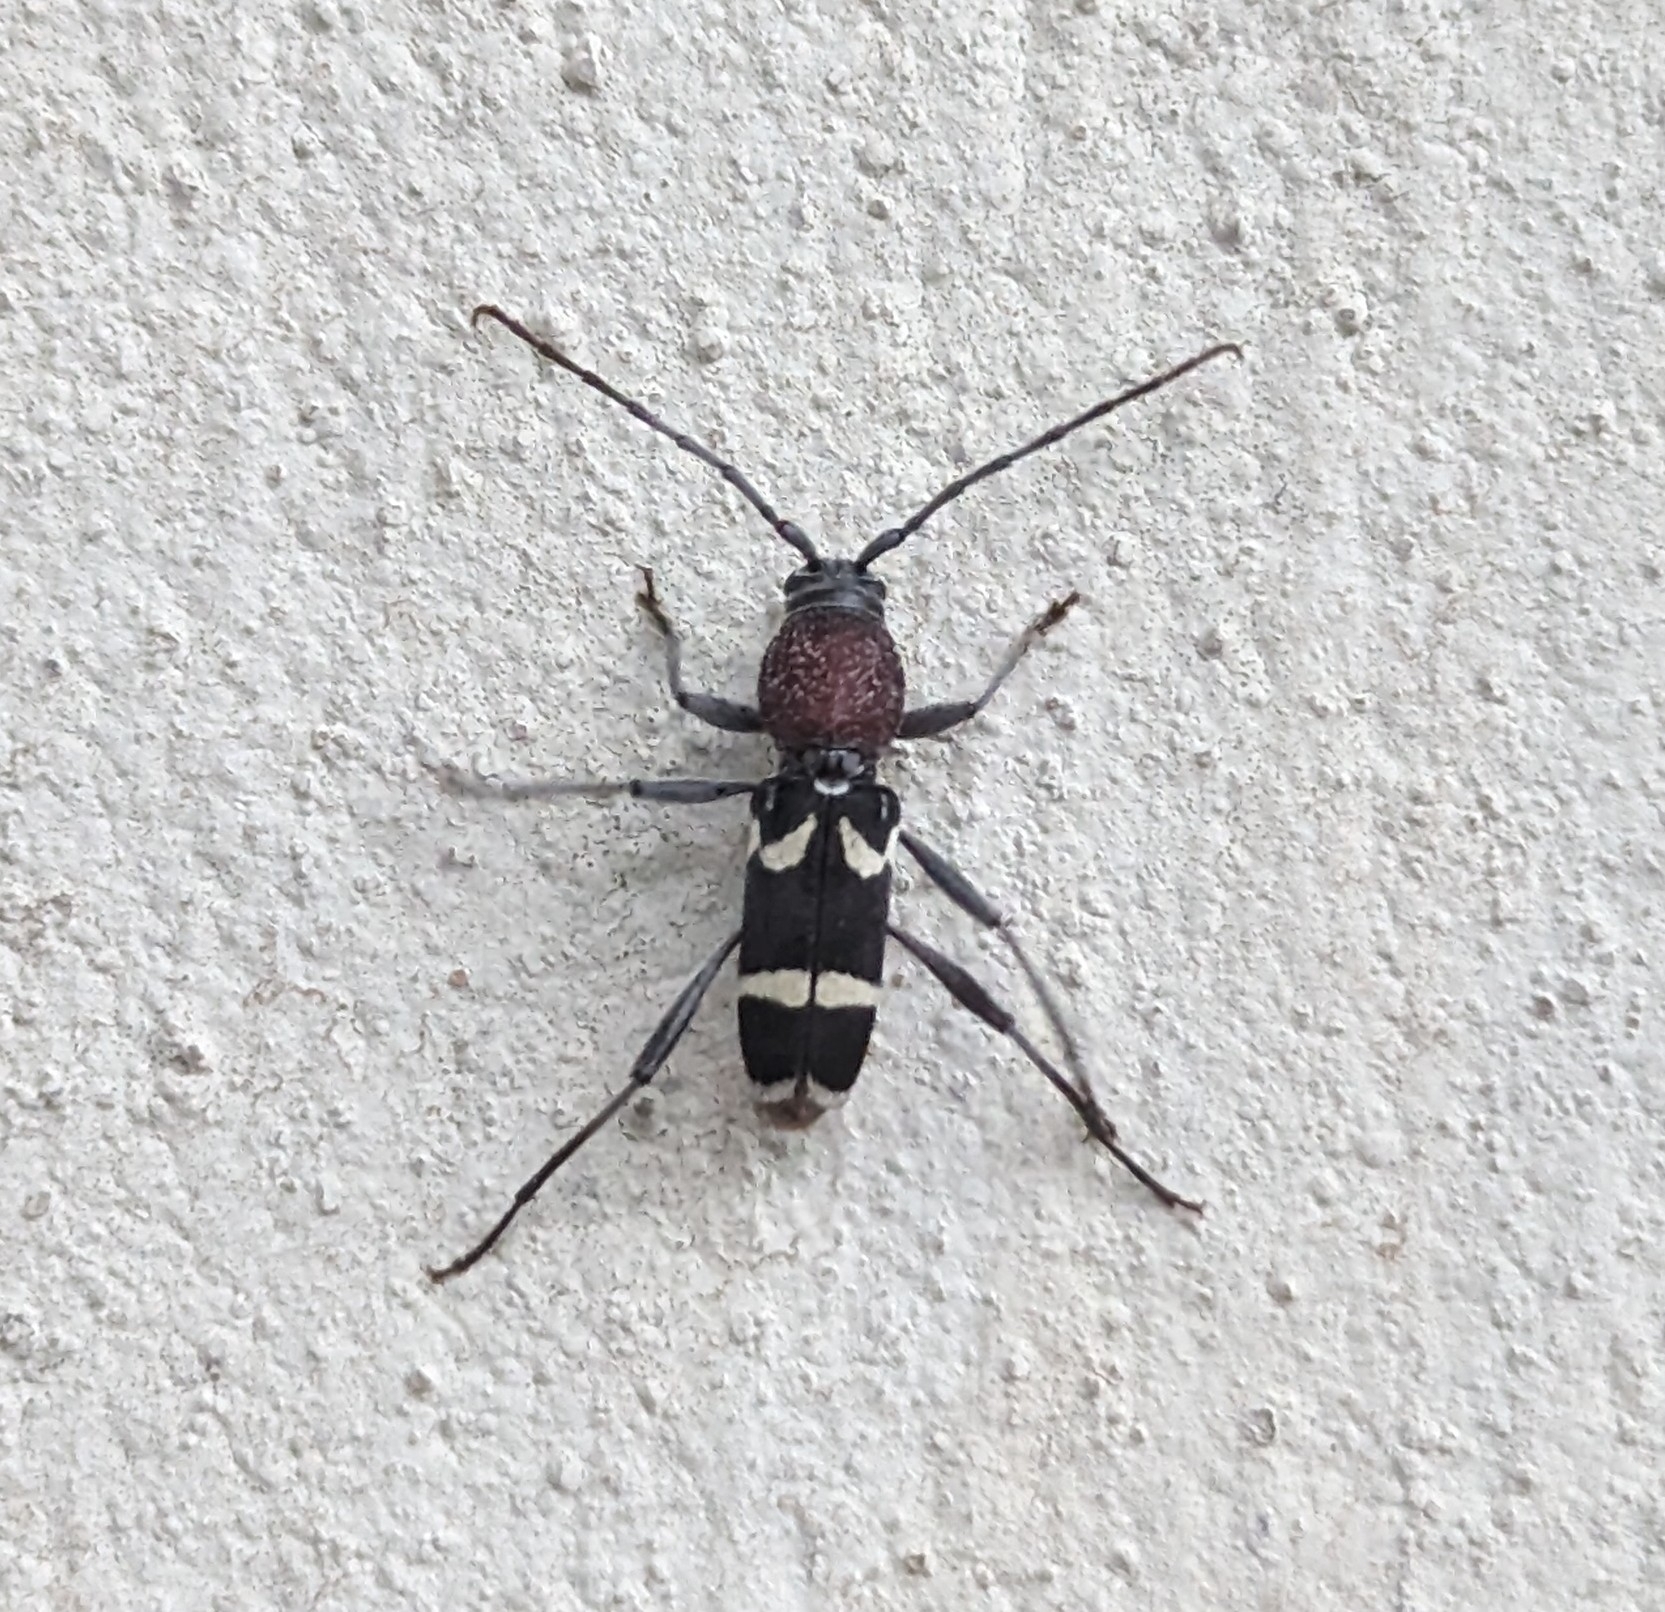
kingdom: Animalia
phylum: Arthropoda
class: Insecta
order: Coleoptera
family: Cerambycidae
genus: Chlorophorus
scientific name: Chlorophorus krantzi
